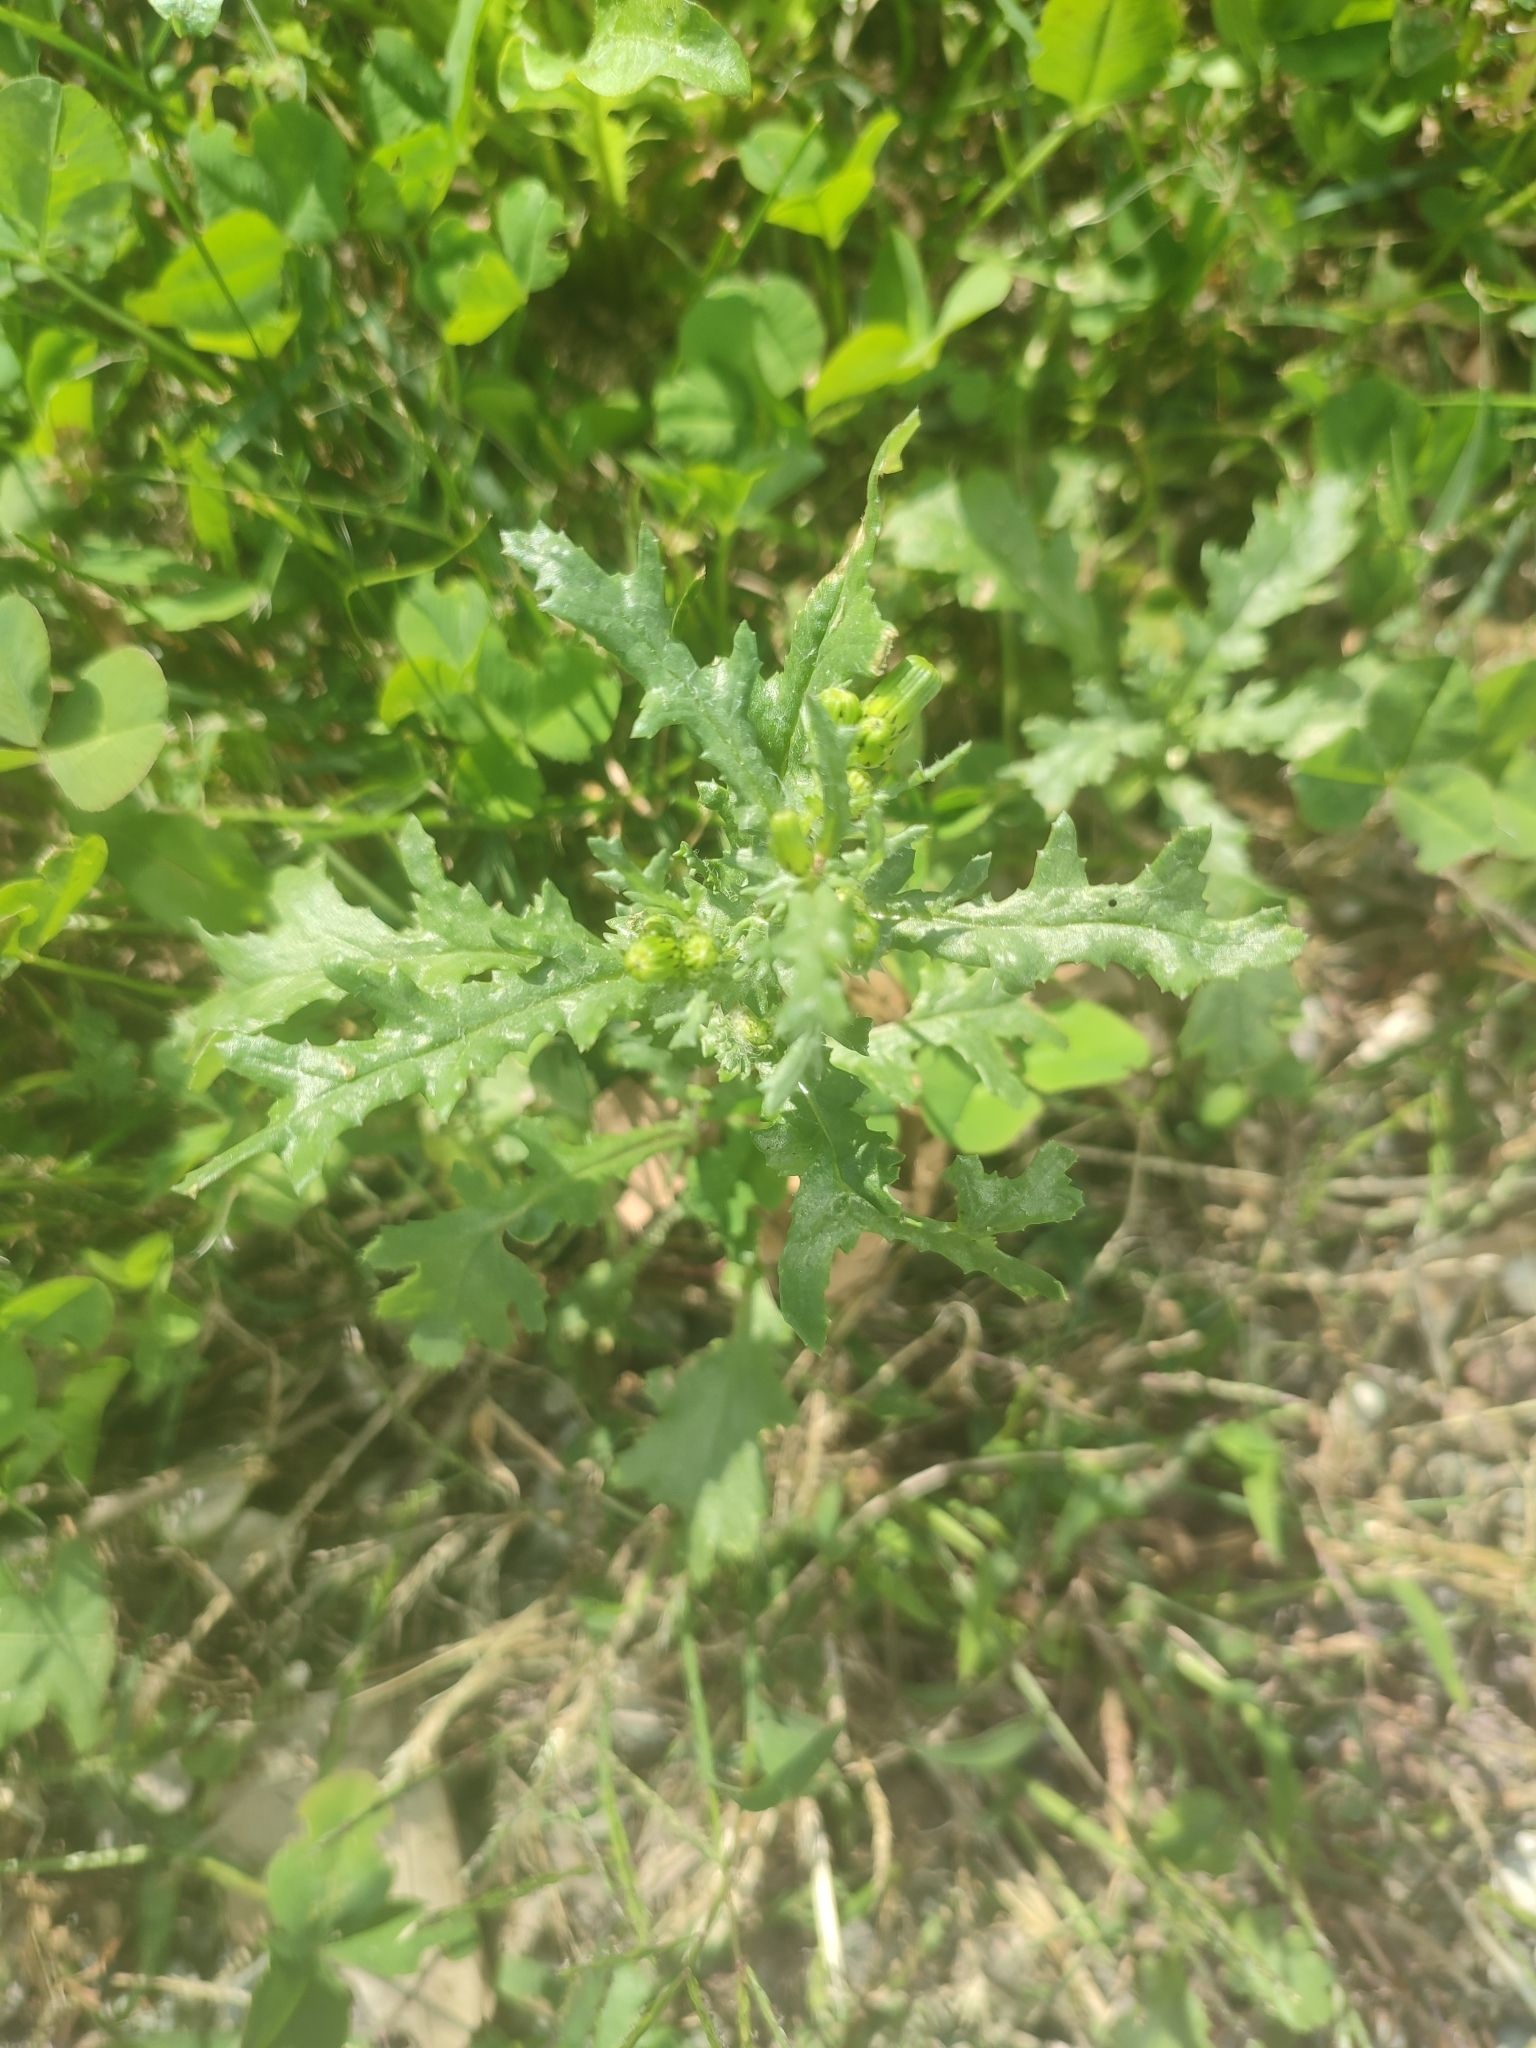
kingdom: Plantae
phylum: Tracheophyta
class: Magnoliopsida
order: Asterales
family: Asteraceae
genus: Senecio
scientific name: Senecio vulgaris
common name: Old-man-in-the-spring
